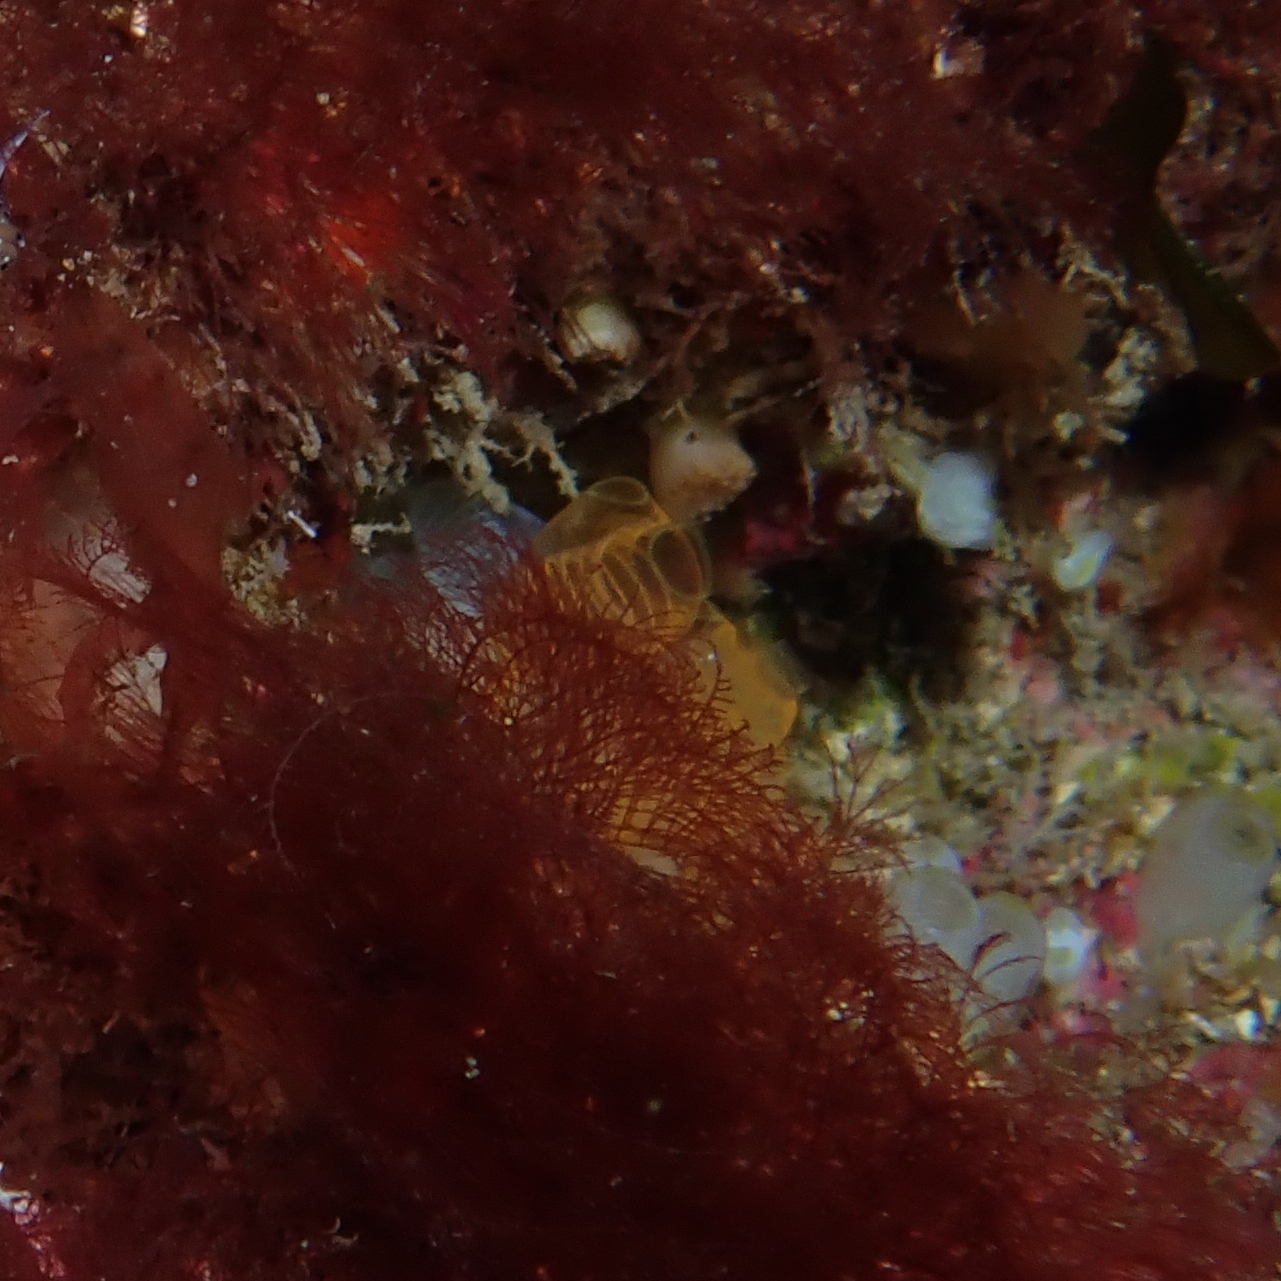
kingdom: Animalia
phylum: Chordata
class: Ascidiacea
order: Aplousobranchia
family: Clavelinidae
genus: Pycnoclavella
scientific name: Pycnoclavella nana
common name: Pin-head squirt
